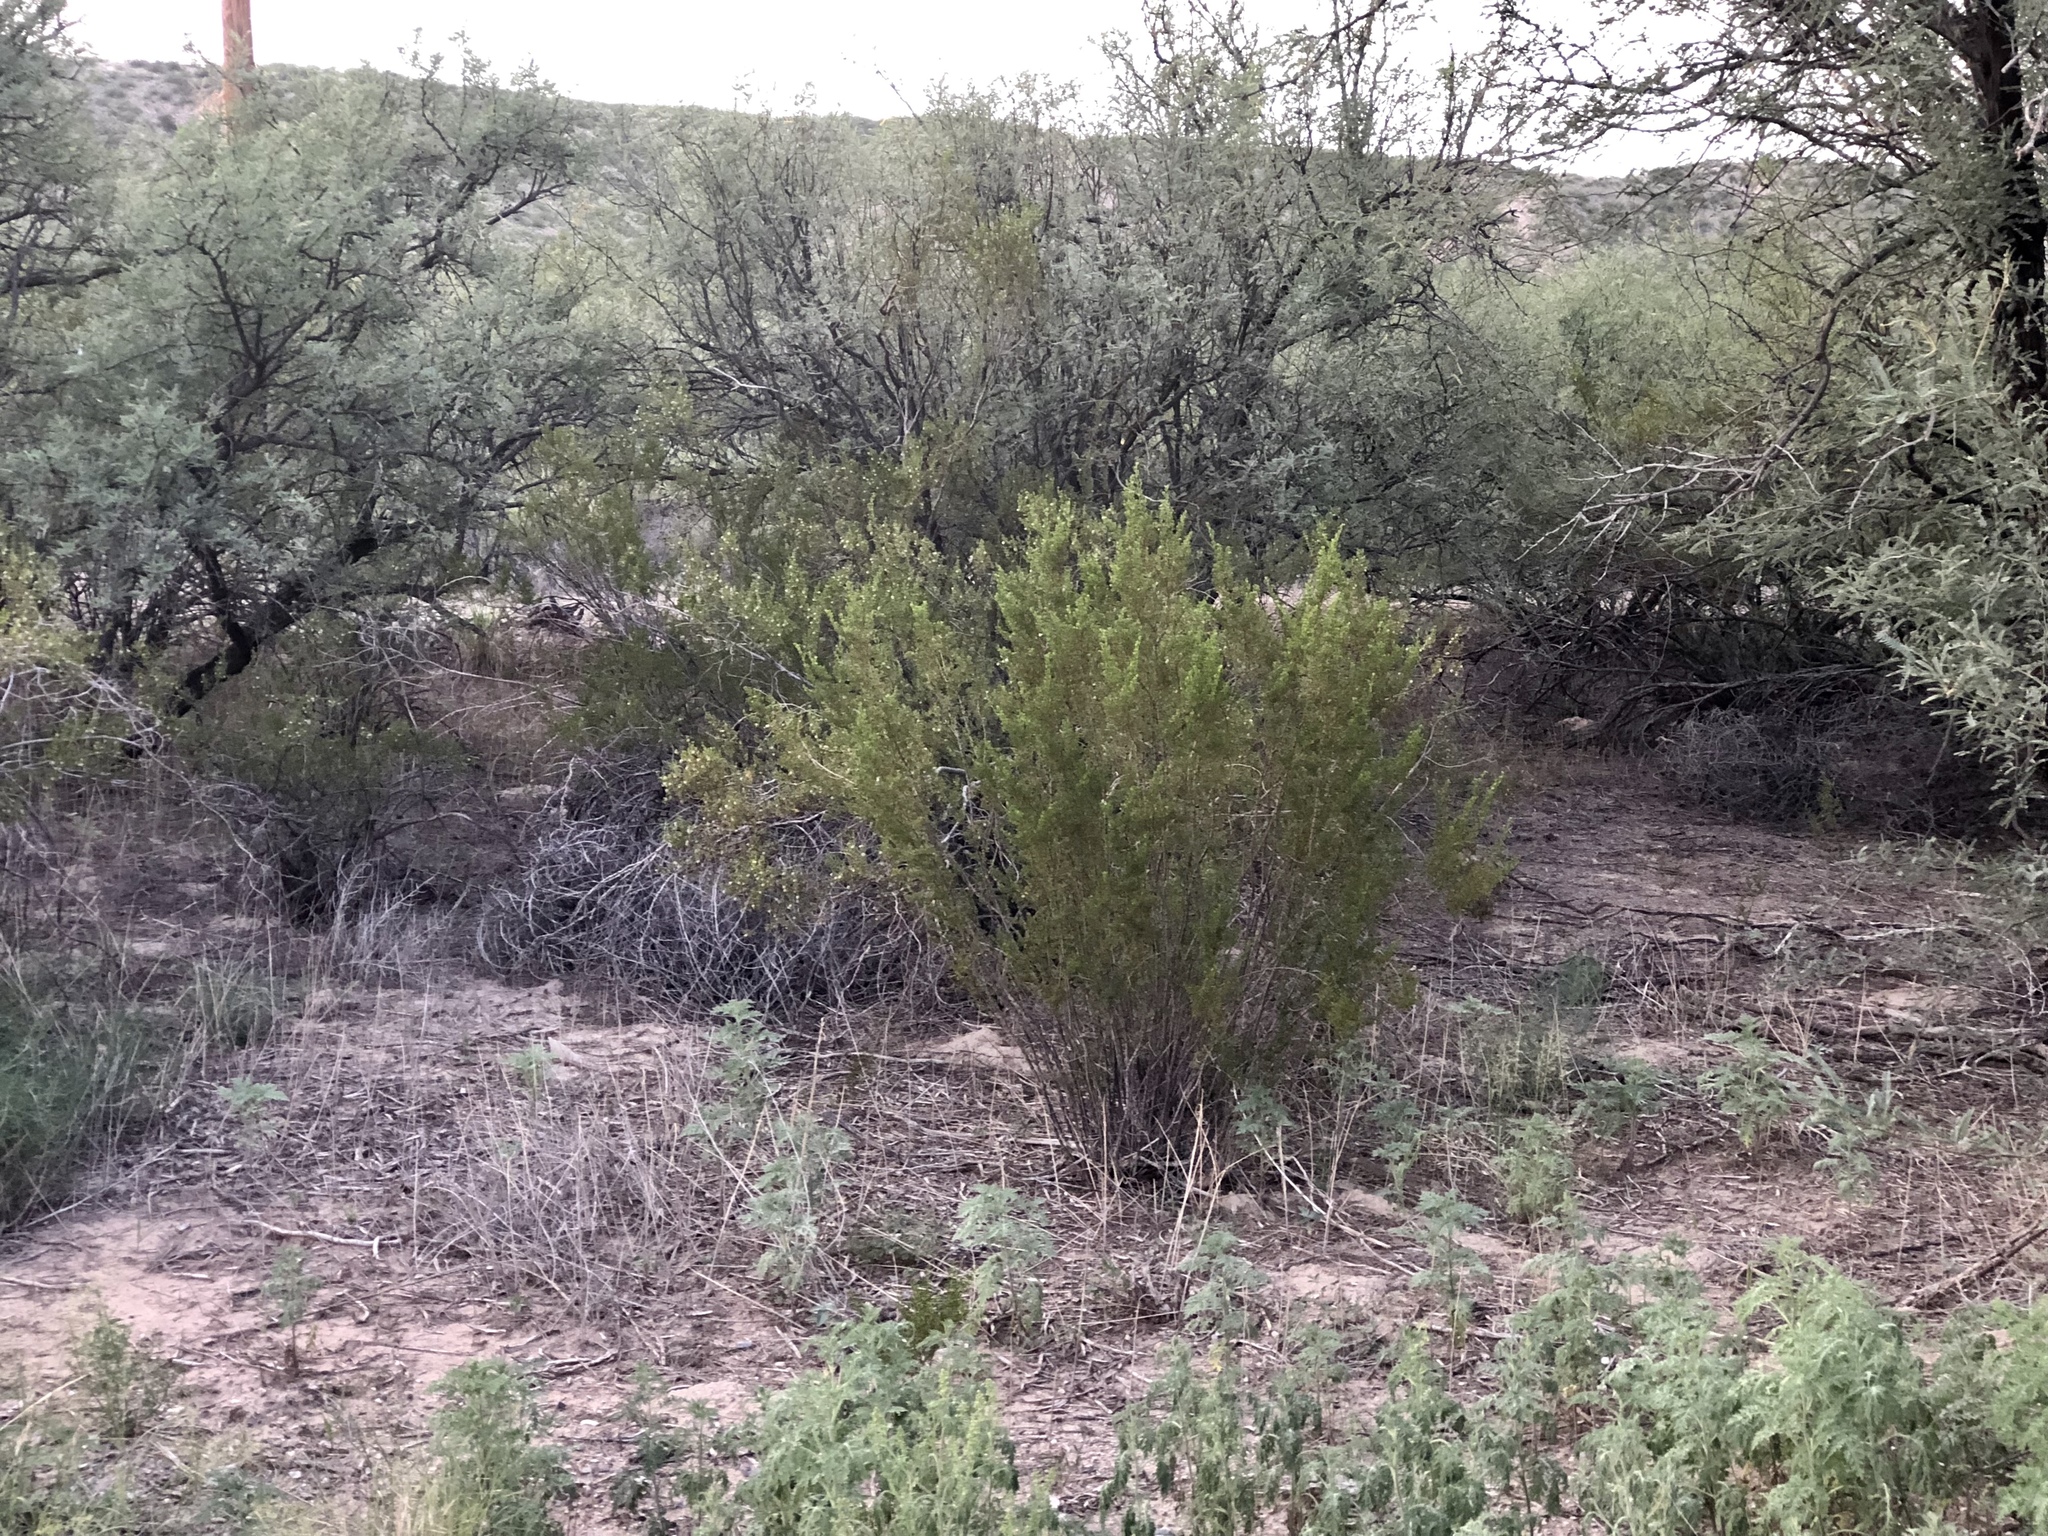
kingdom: Plantae
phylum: Tracheophyta
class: Magnoliopsida
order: Zygophyllales
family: Zygophyllaceae
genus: Larrea
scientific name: Larrea tridentata
